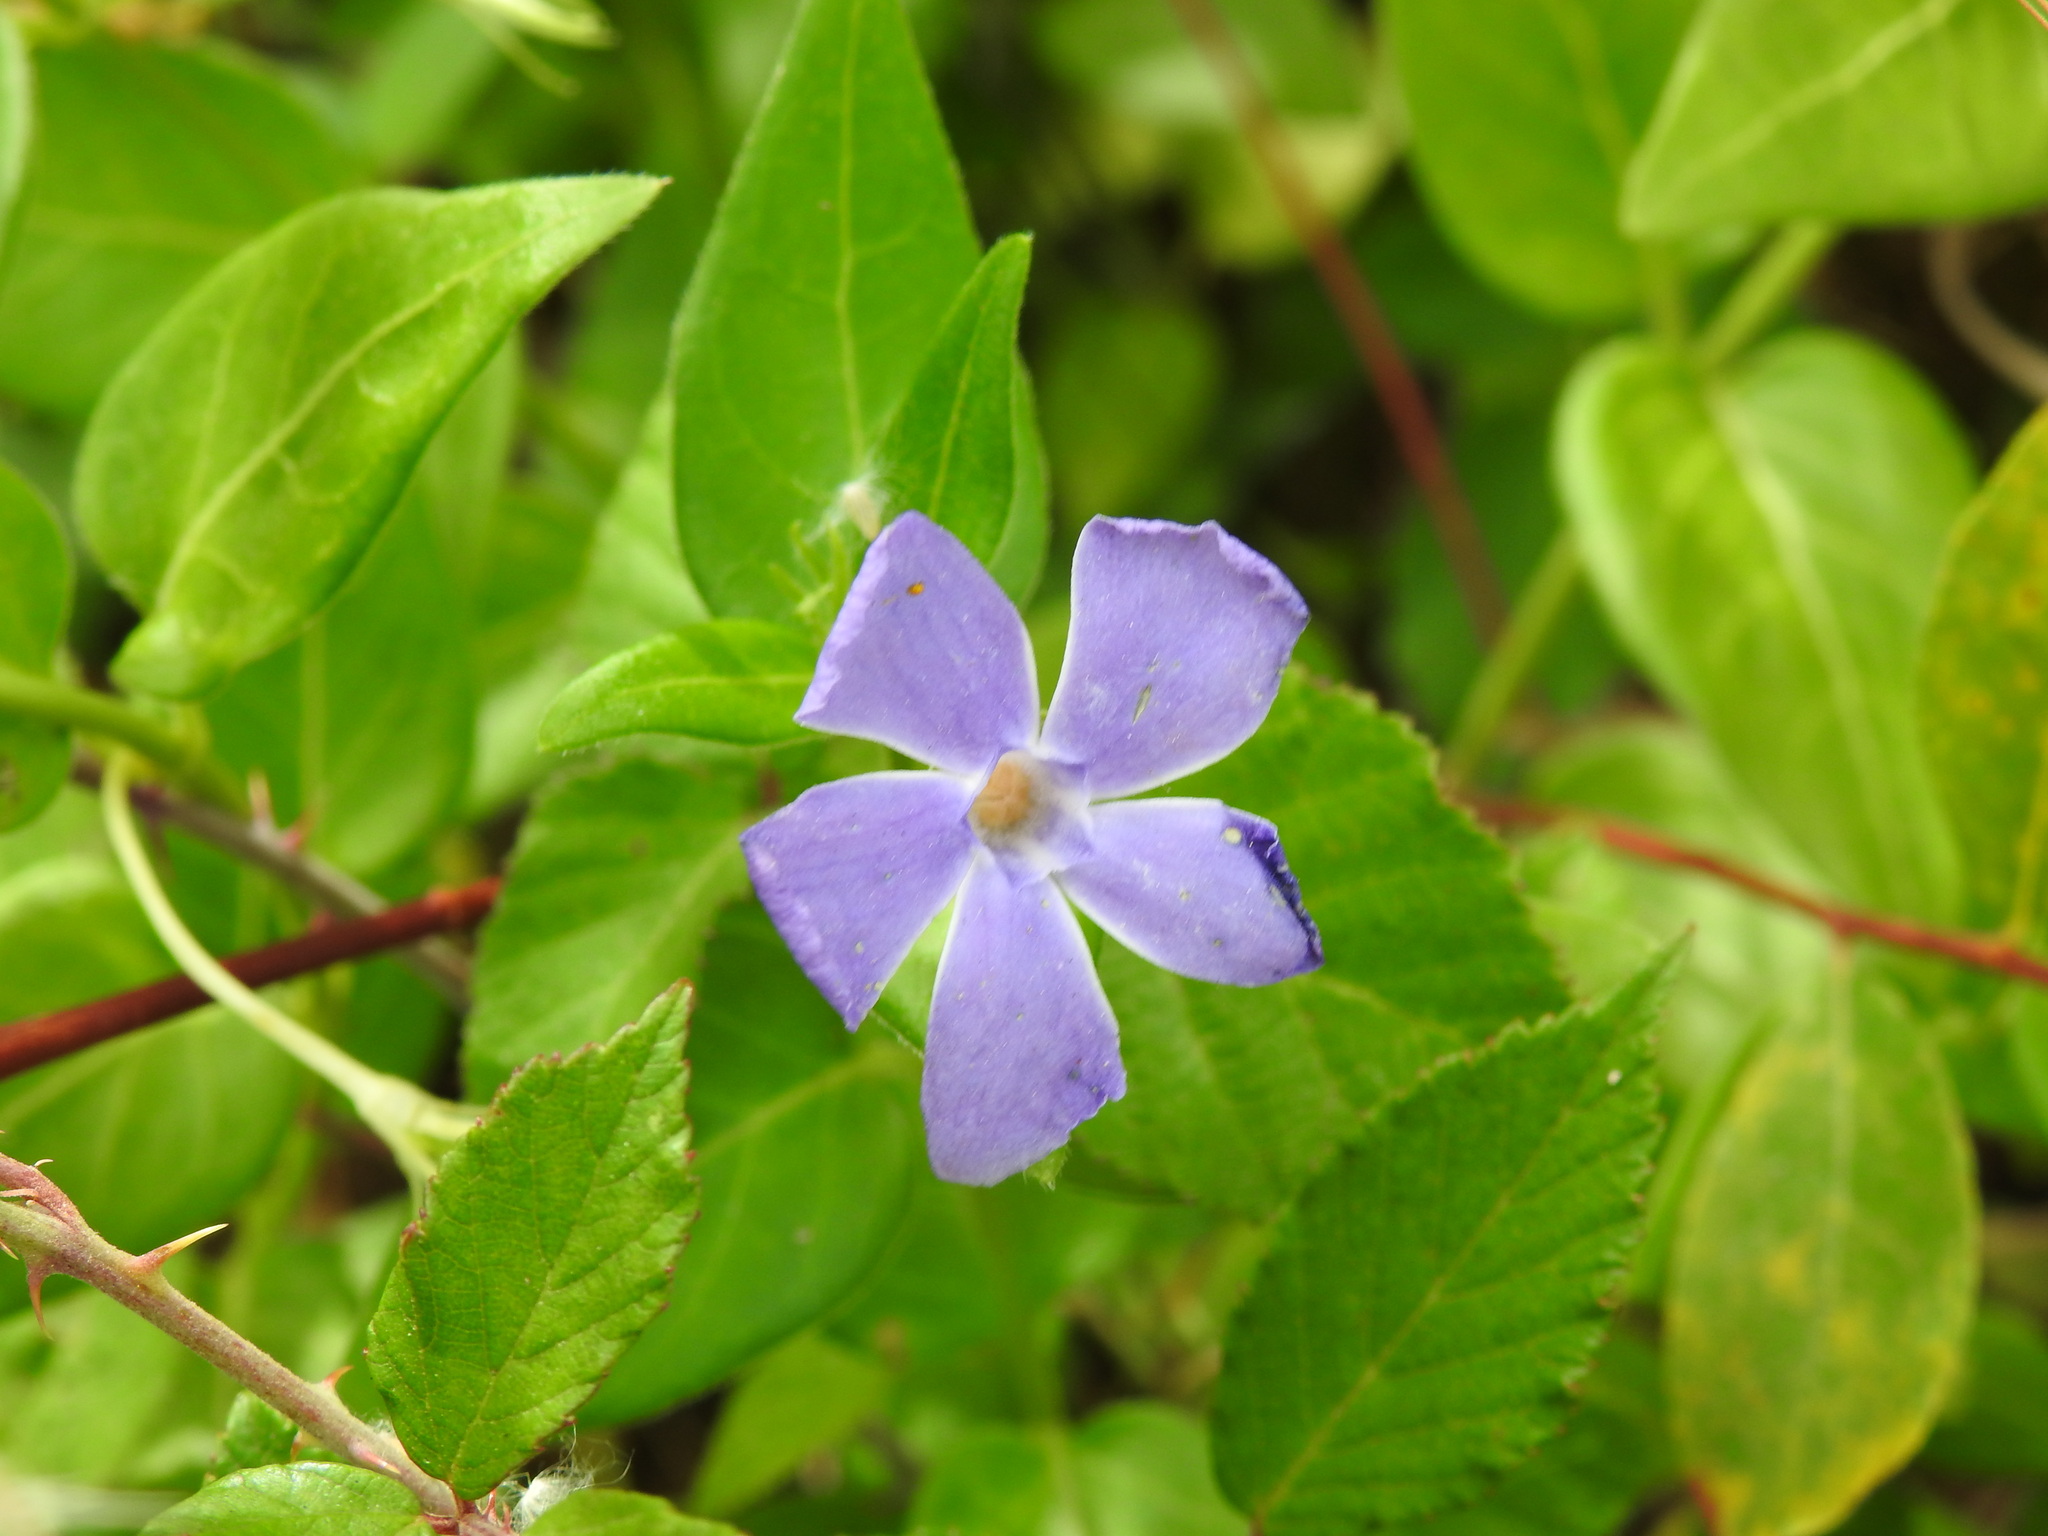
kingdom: Plantae
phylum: Tracheophyta
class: Magnoliopsida
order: Gentianales
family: Apocynaceae
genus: Vinca
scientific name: Vinca major
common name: Greater periwinkle
